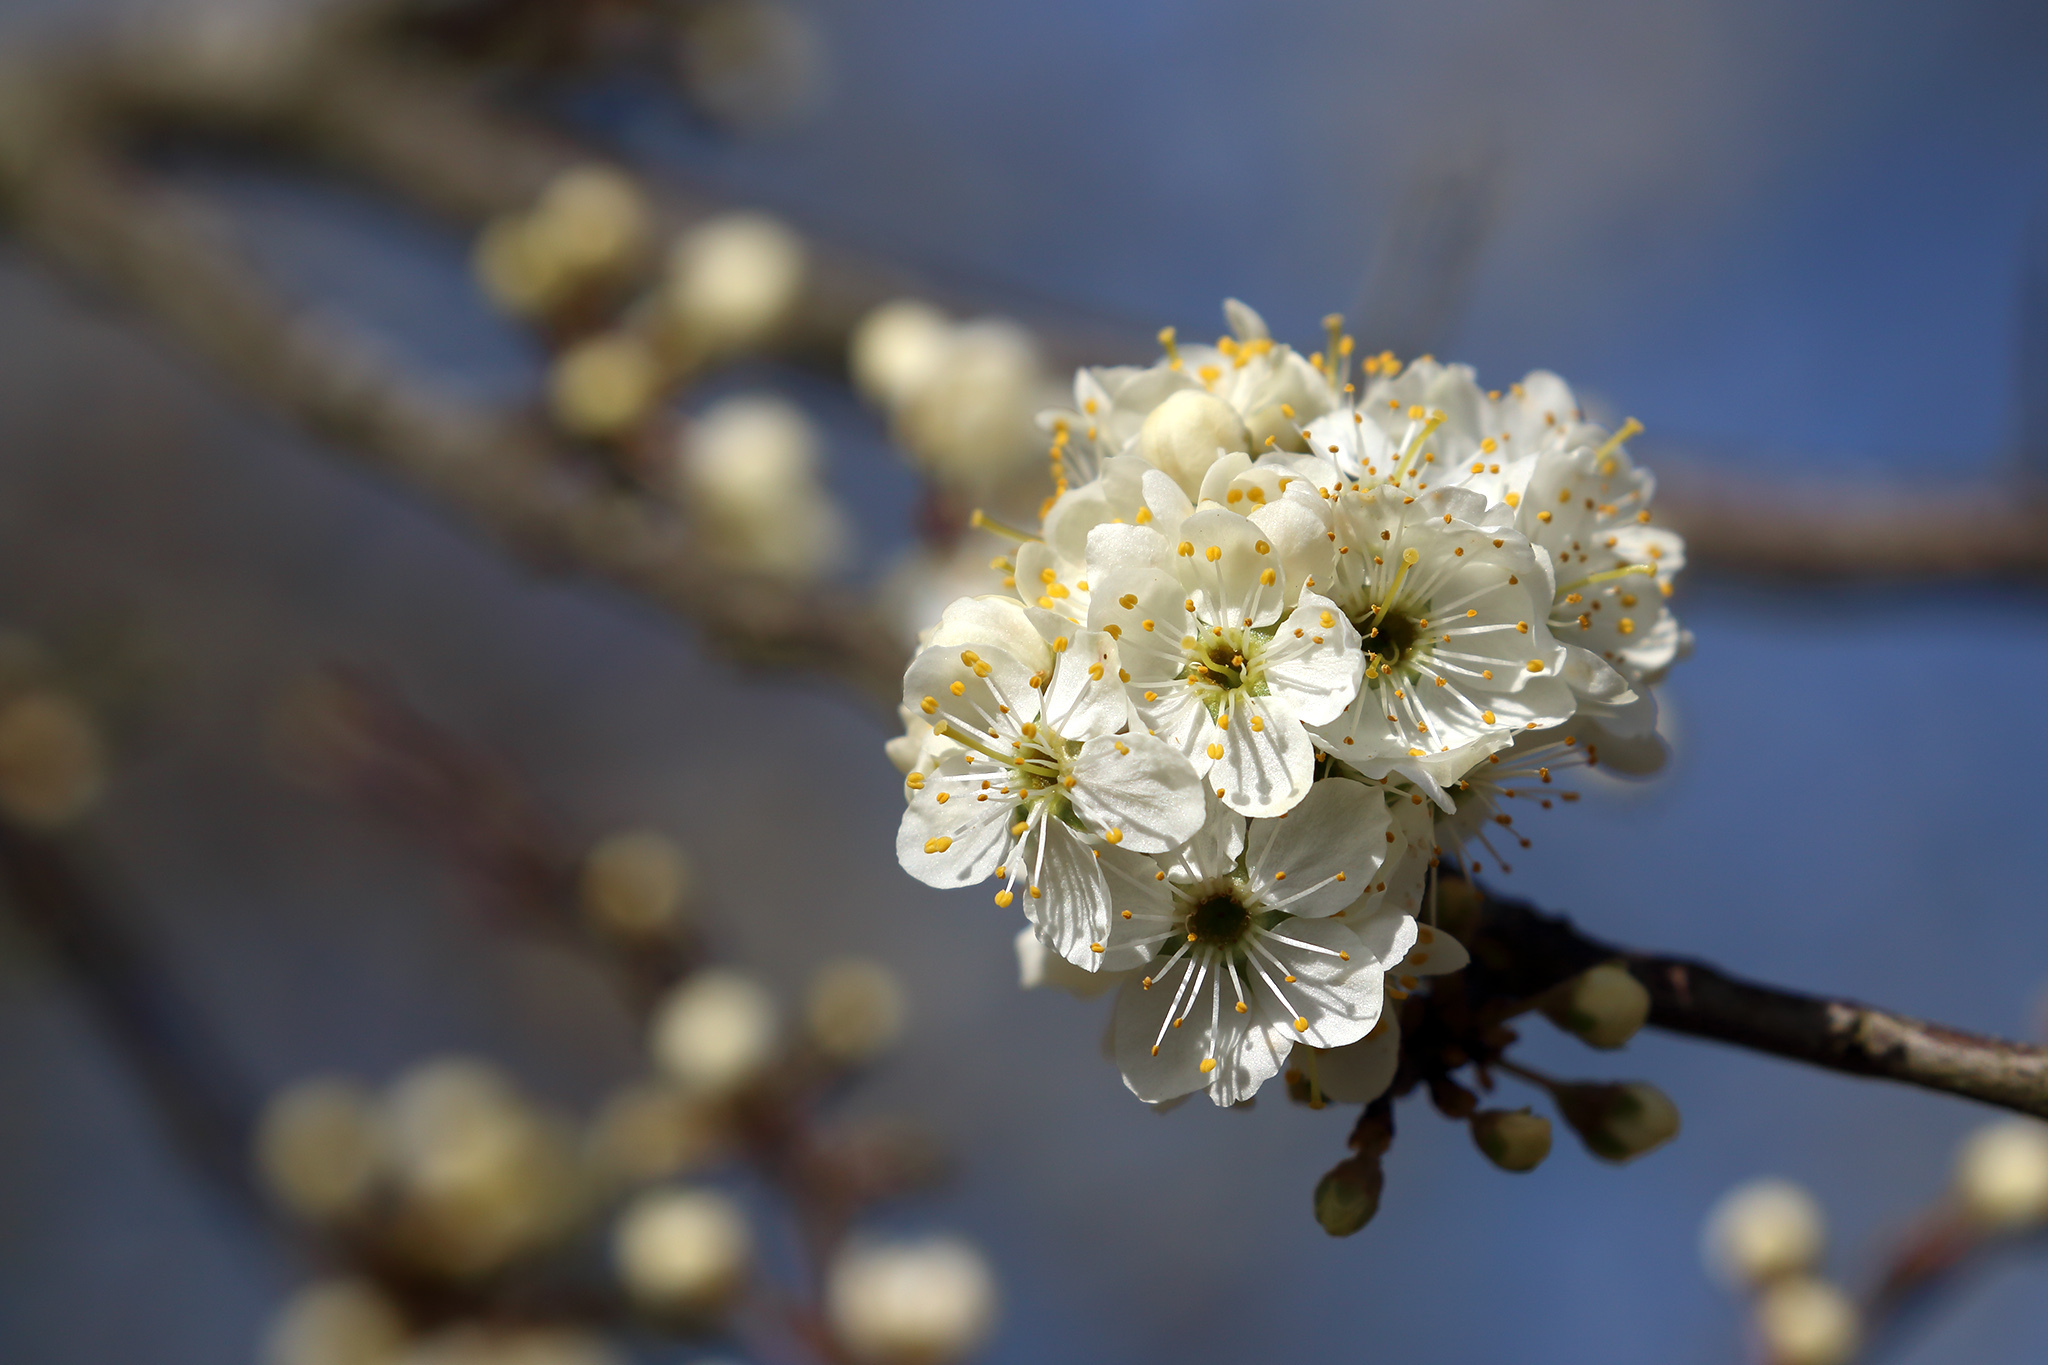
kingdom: Plantae
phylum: Tracheophyta
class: Magnoliopsida
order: Rosales
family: Rosaceae
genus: Prunus
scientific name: Prunus spinosa
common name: Blackthorn
